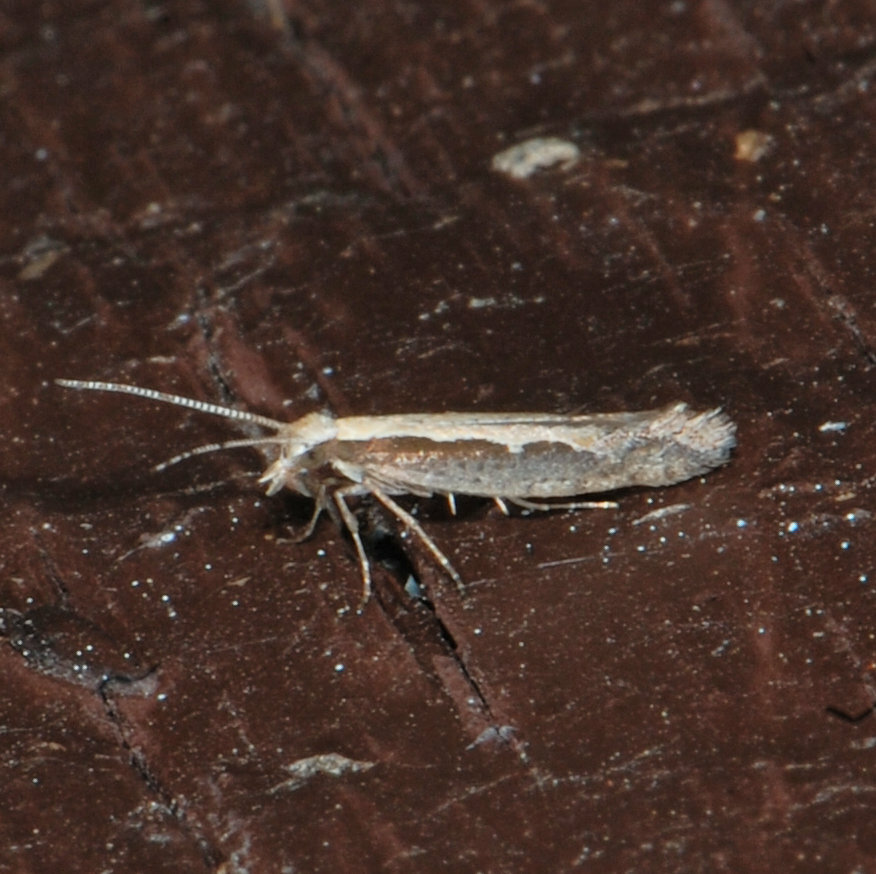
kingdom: Animalia
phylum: Arthropoda
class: Insecta
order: Lepidoptera
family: Plutellidae
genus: Plutella
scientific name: Plutella xylostella
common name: Diamond-back moth
